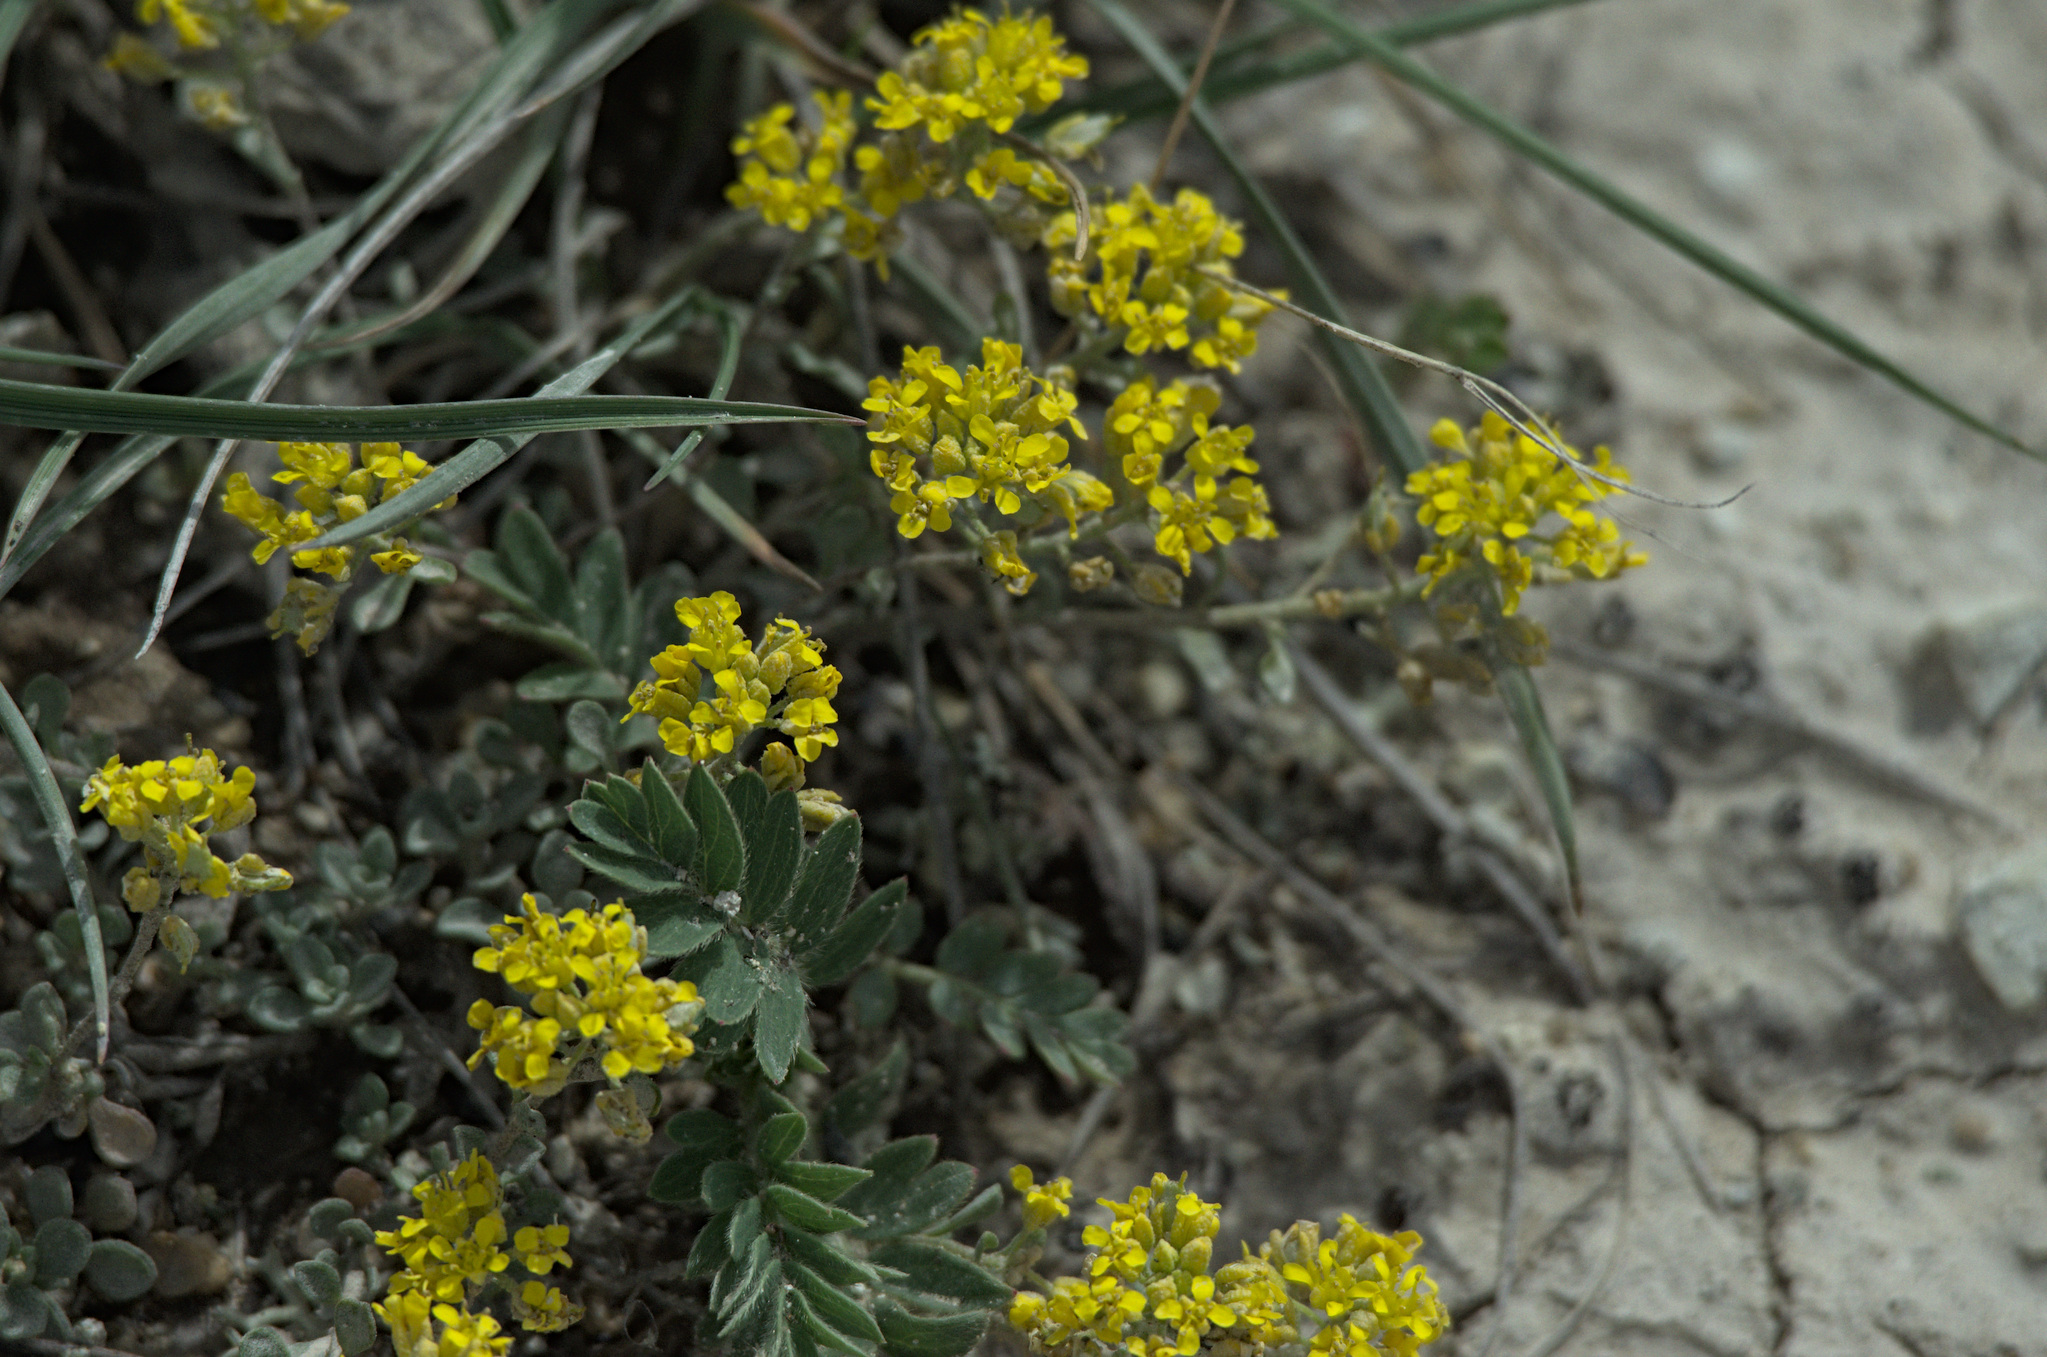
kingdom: Plantae
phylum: Tracheophyta
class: Magnoliopsida
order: Brassicales
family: Brassicaceae
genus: Odontarrhena
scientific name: Odontarrhena obovata
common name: American alyssum
